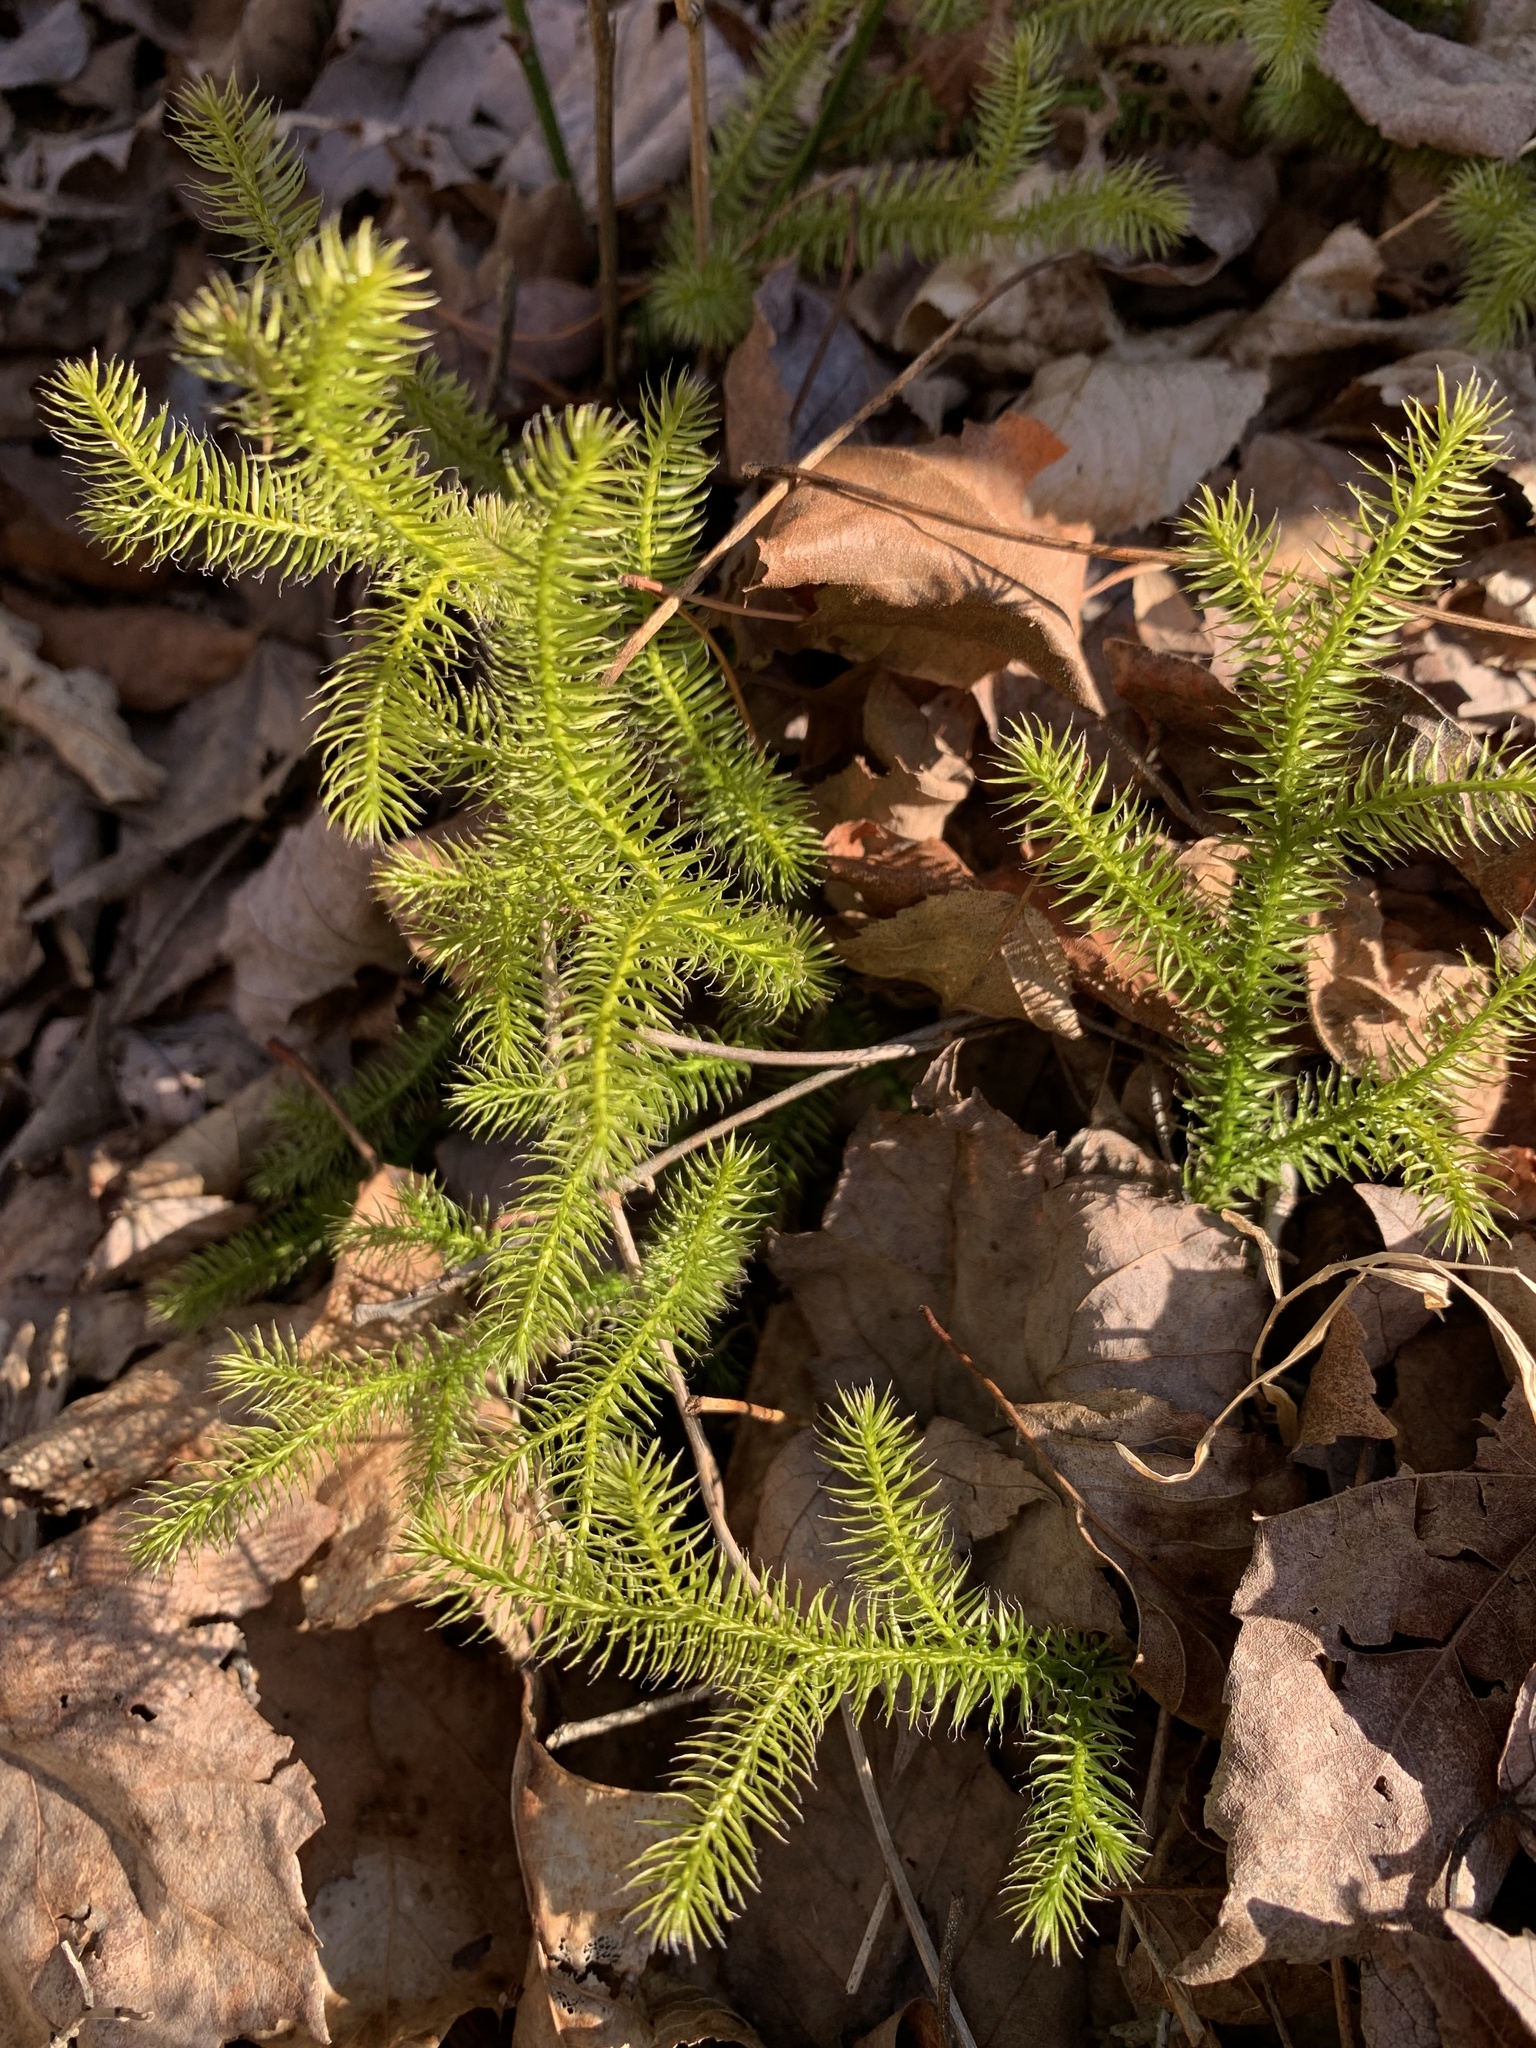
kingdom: Plantae
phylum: Tracheophyta
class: Lycopodiopsida
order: Lycopodiales
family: Lycopodiaceae
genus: Lycopodium
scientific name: Lycopodium clavatum
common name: Stag's-horn clubmoss
